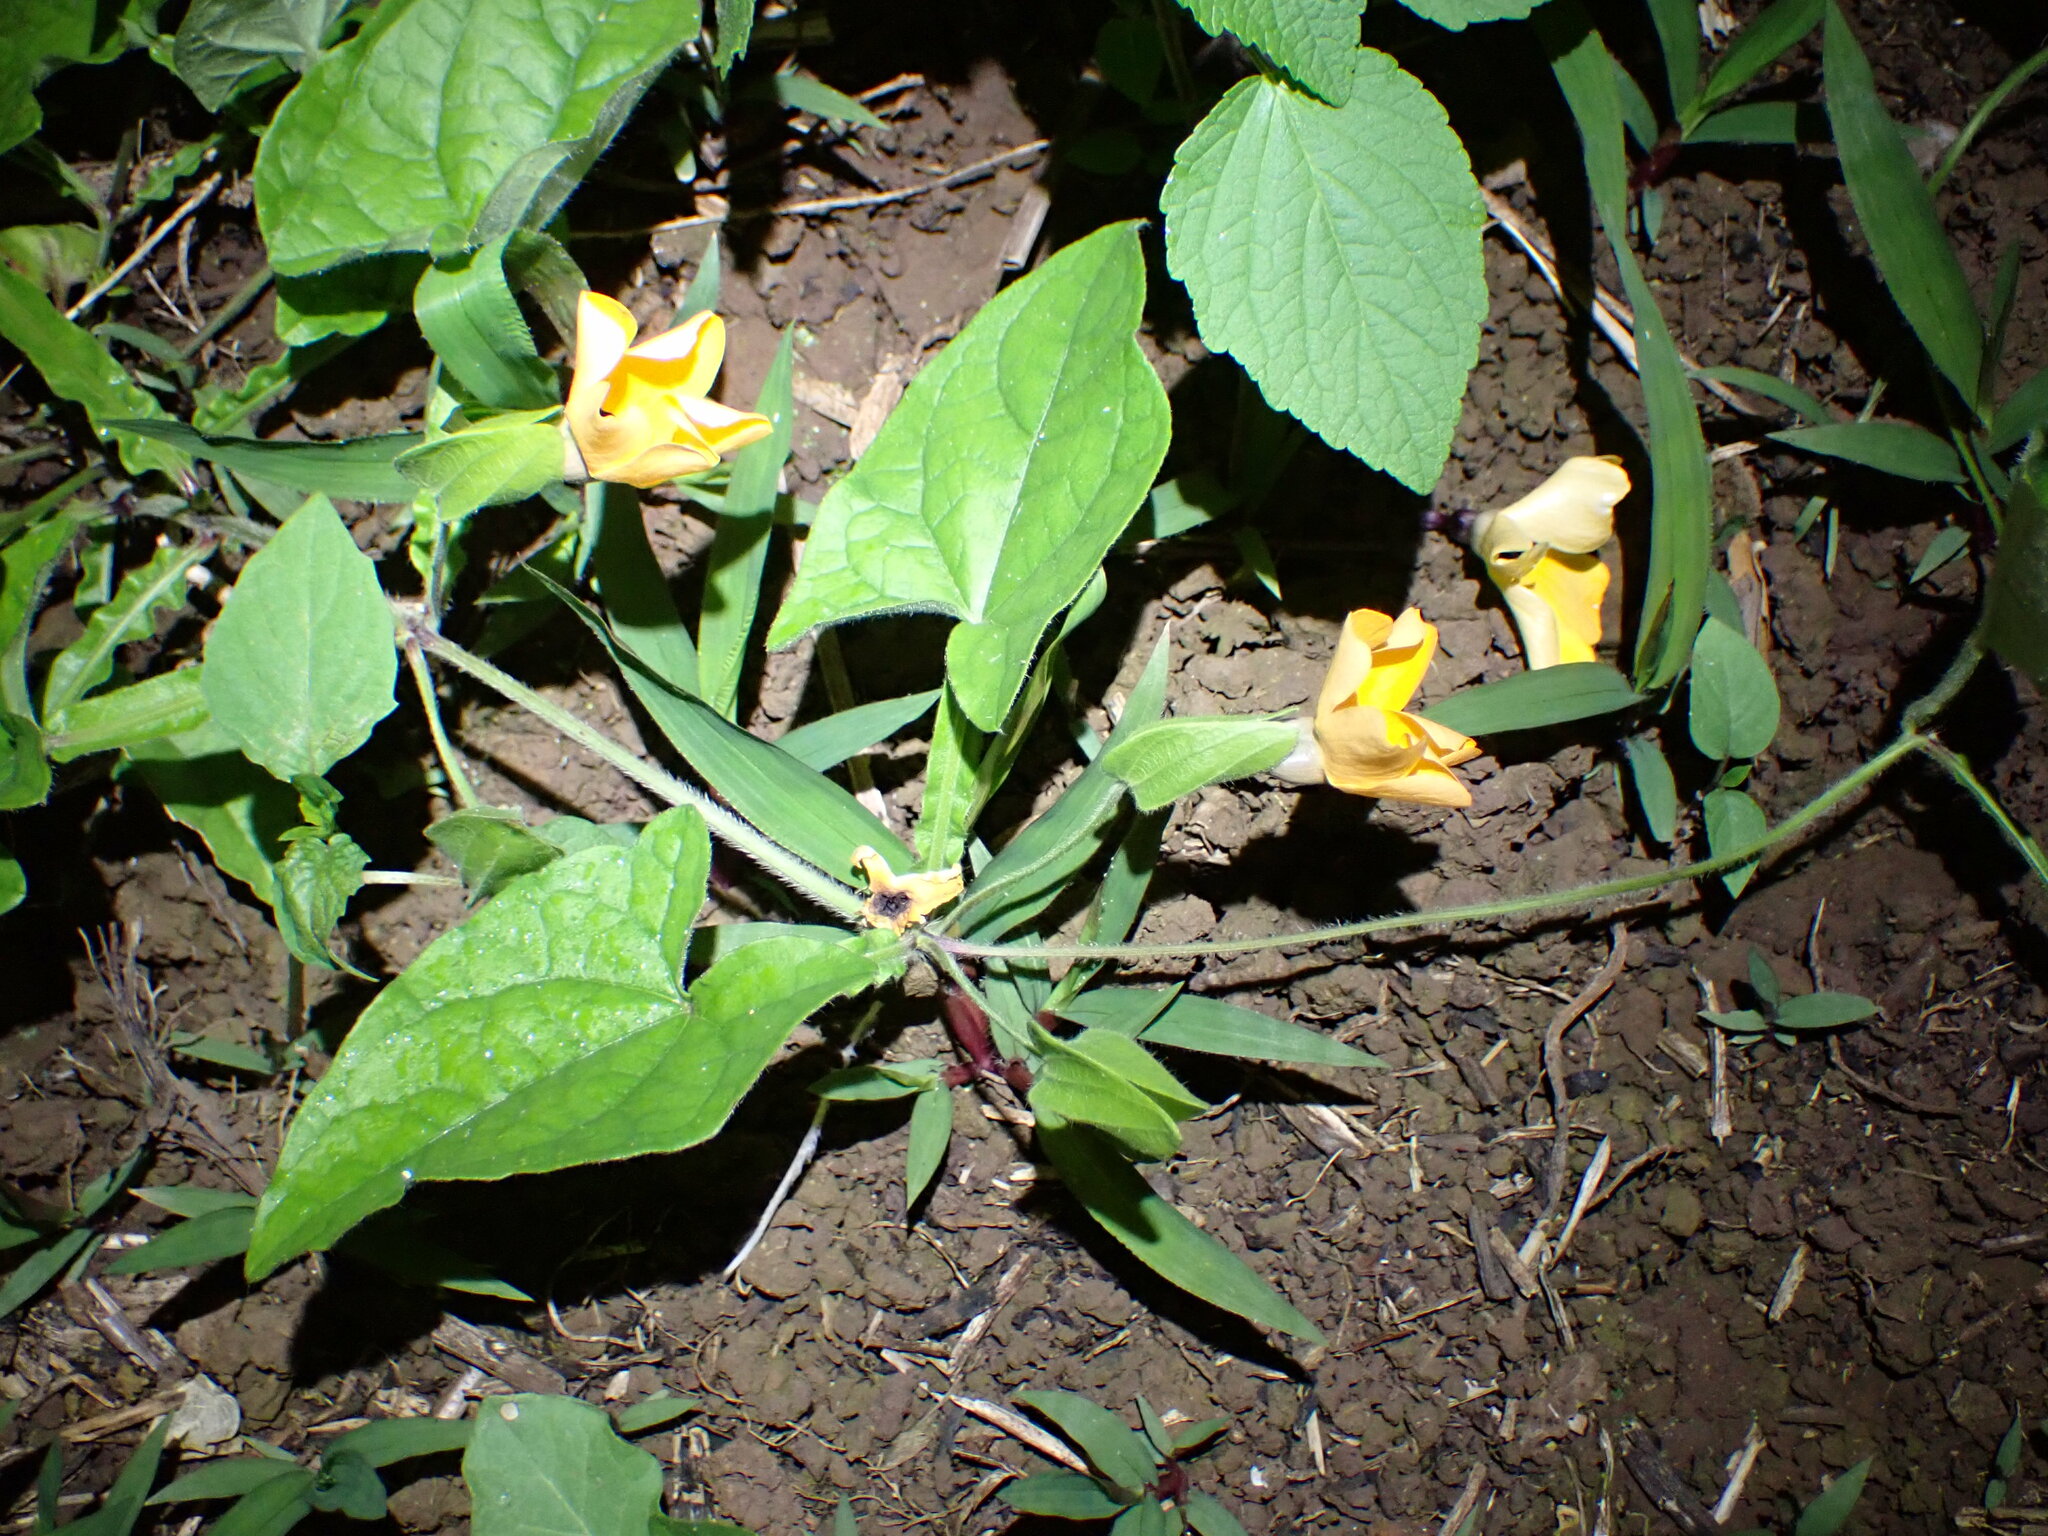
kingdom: Plantae
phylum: Tracheophyta
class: Magnoliopsida
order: Lamiales
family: Acanthaceae
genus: Thunbergia
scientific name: Thunbergia alata
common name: Blackeyed susan vine
